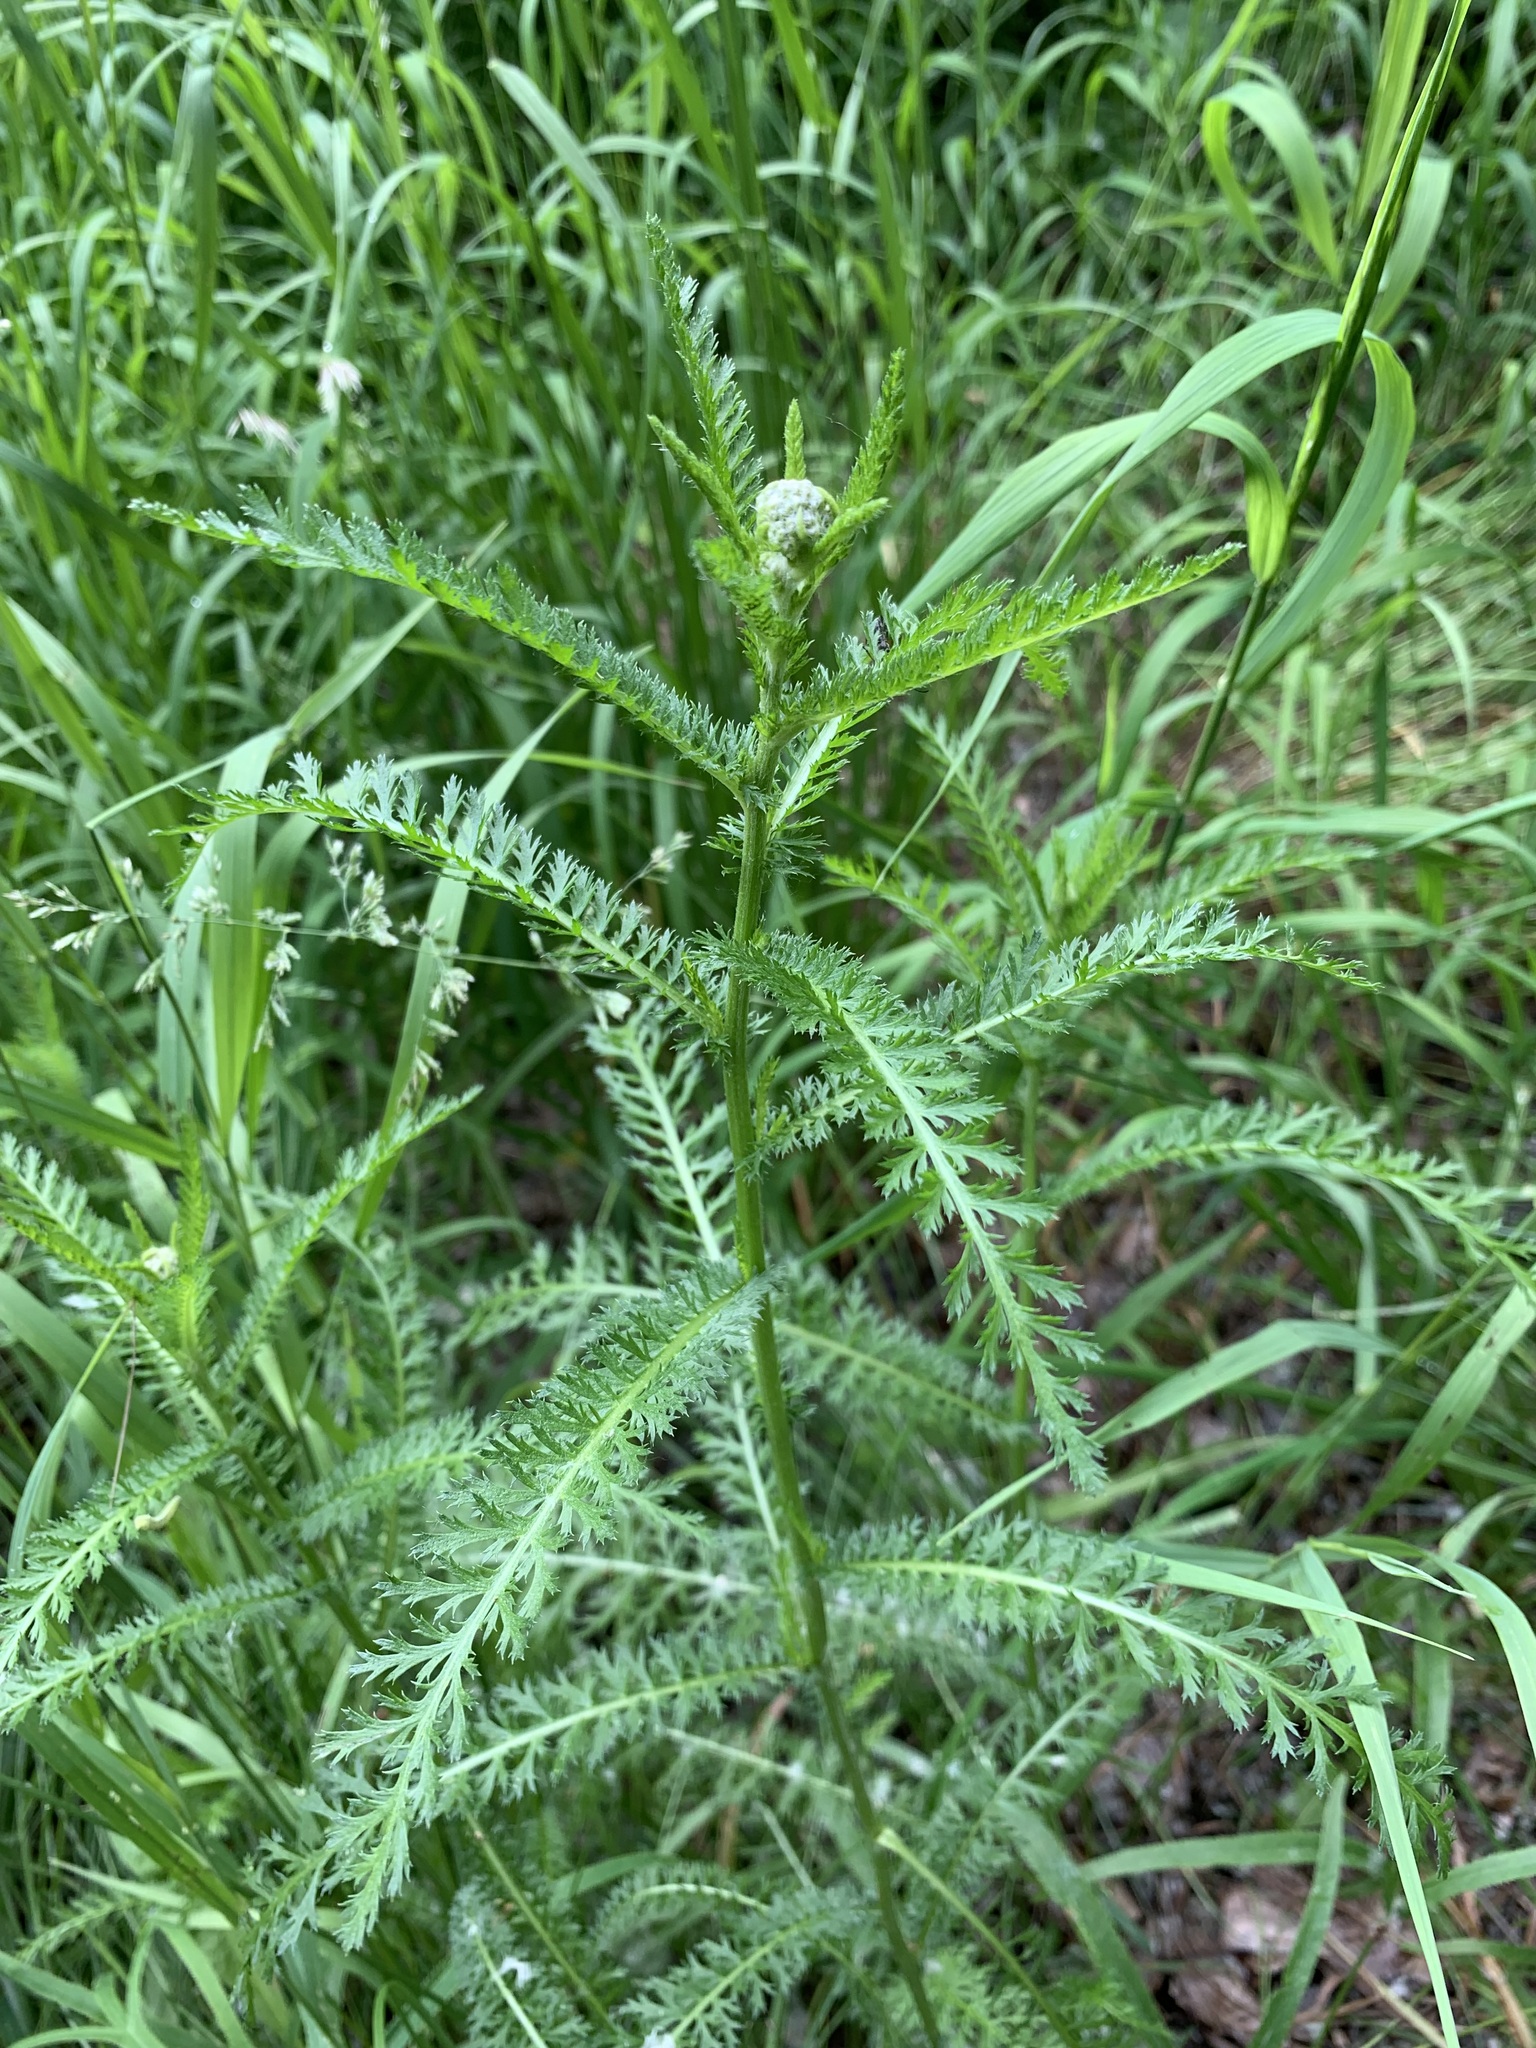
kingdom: Plantae
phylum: Tracheophyta
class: Magnoliopsida
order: Asterales
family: Asteraceae
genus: Achillea
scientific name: Achillea millefolium
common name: Yarrow
